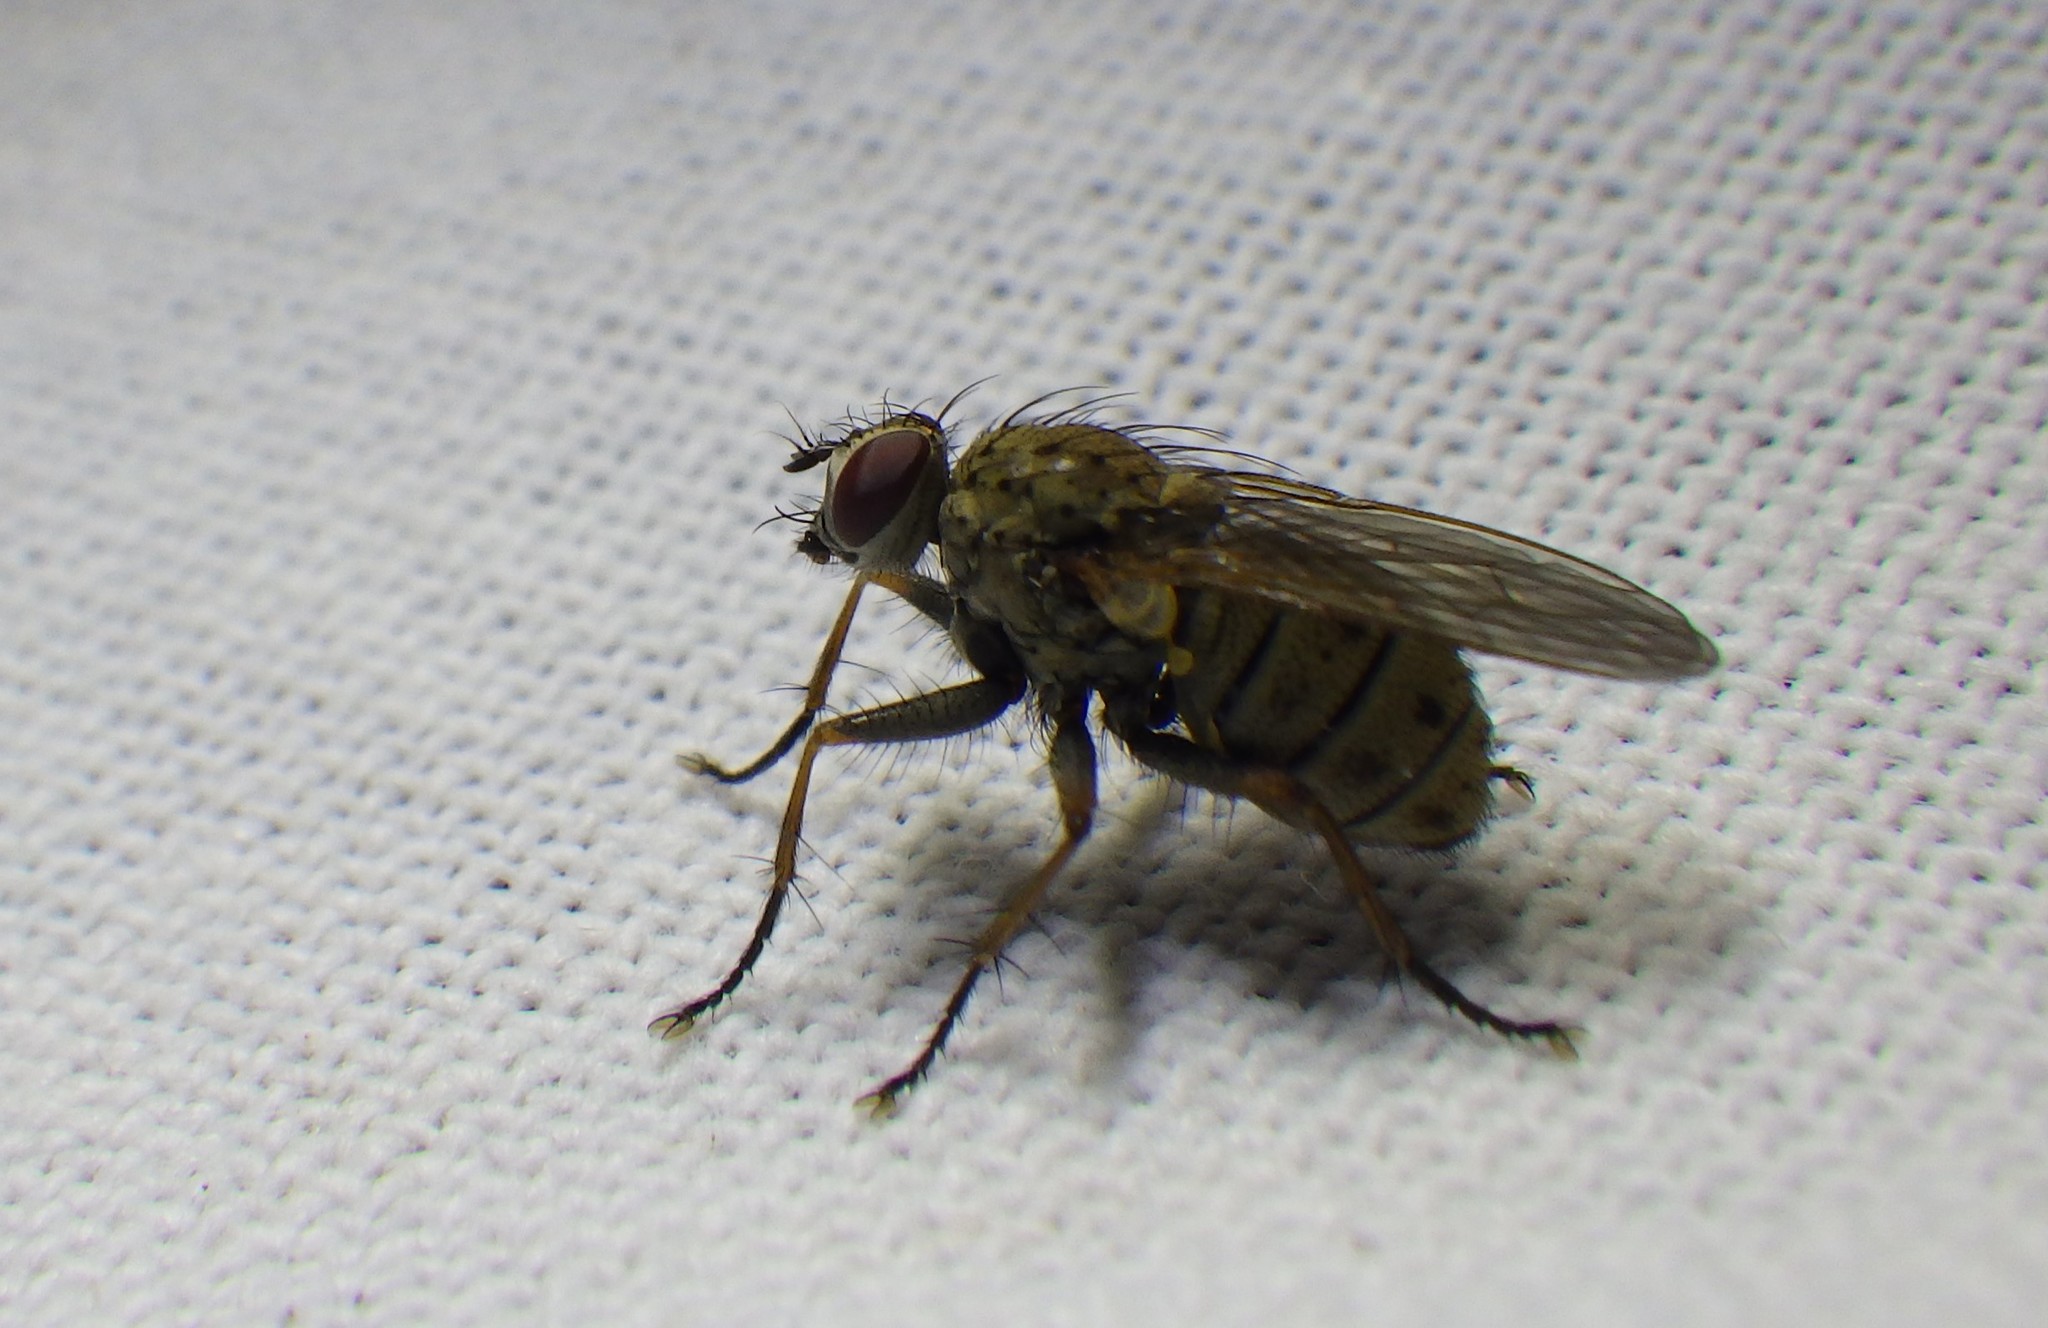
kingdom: Animalia
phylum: Arthropoda
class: Insecta
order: Diptera
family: Muscidae
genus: Coenosia
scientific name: Coenosia tigrina
